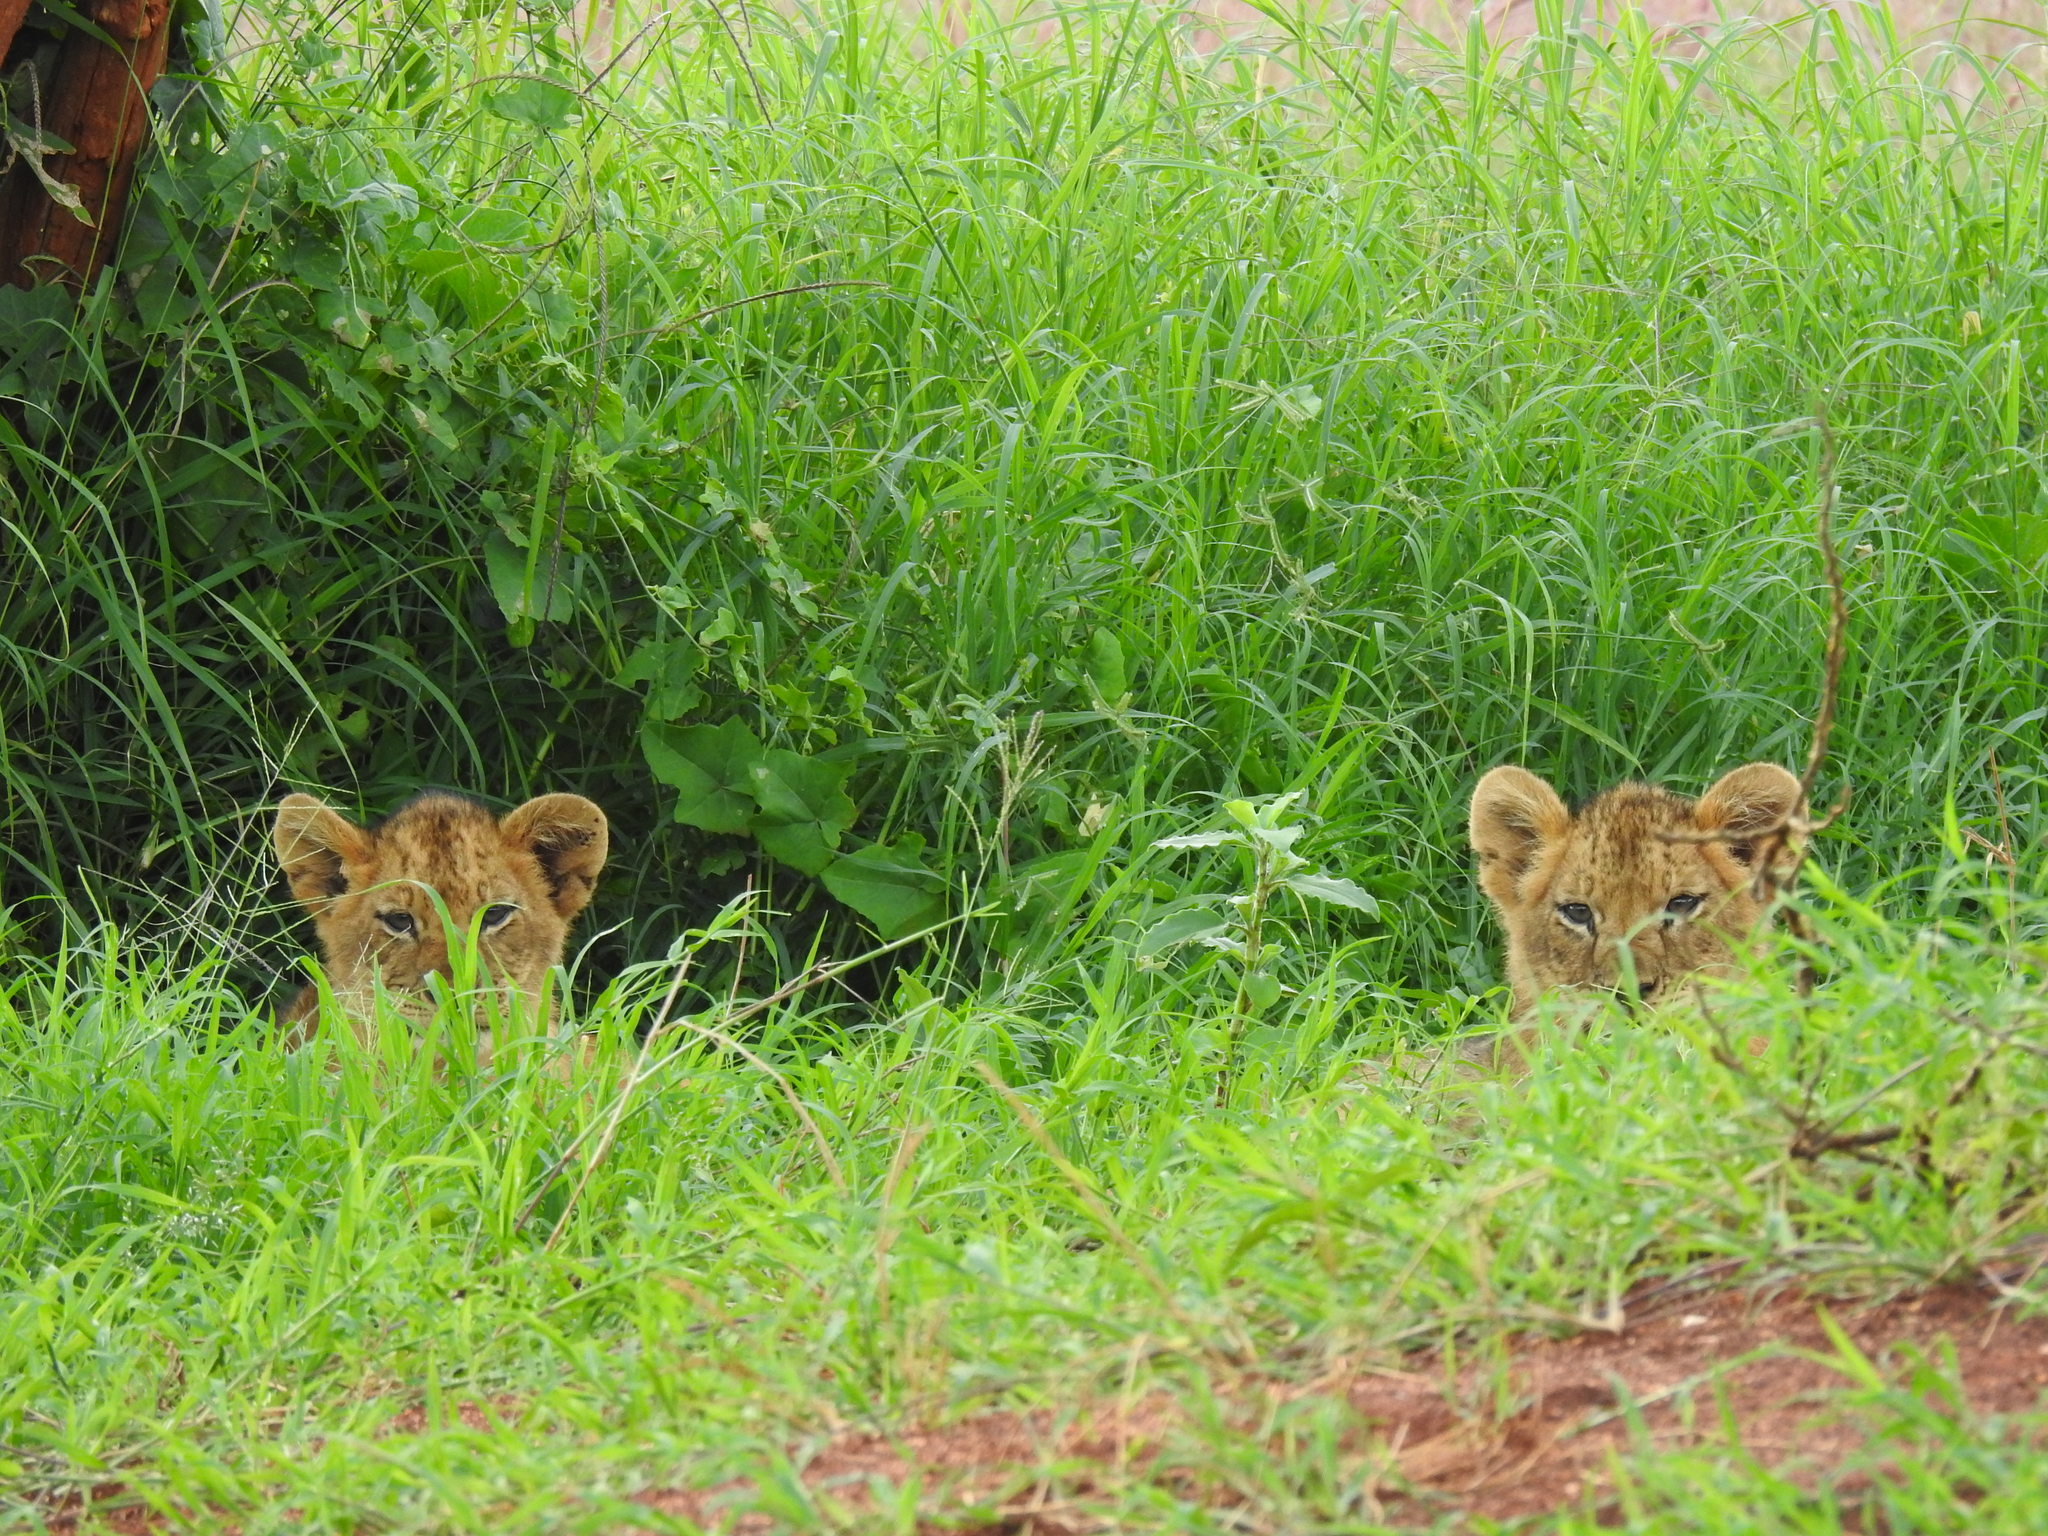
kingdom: Animalia
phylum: Chordata
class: Mammalia
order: Carnivora
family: Felidae
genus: Panthera
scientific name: Panthera leo
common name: Lion
